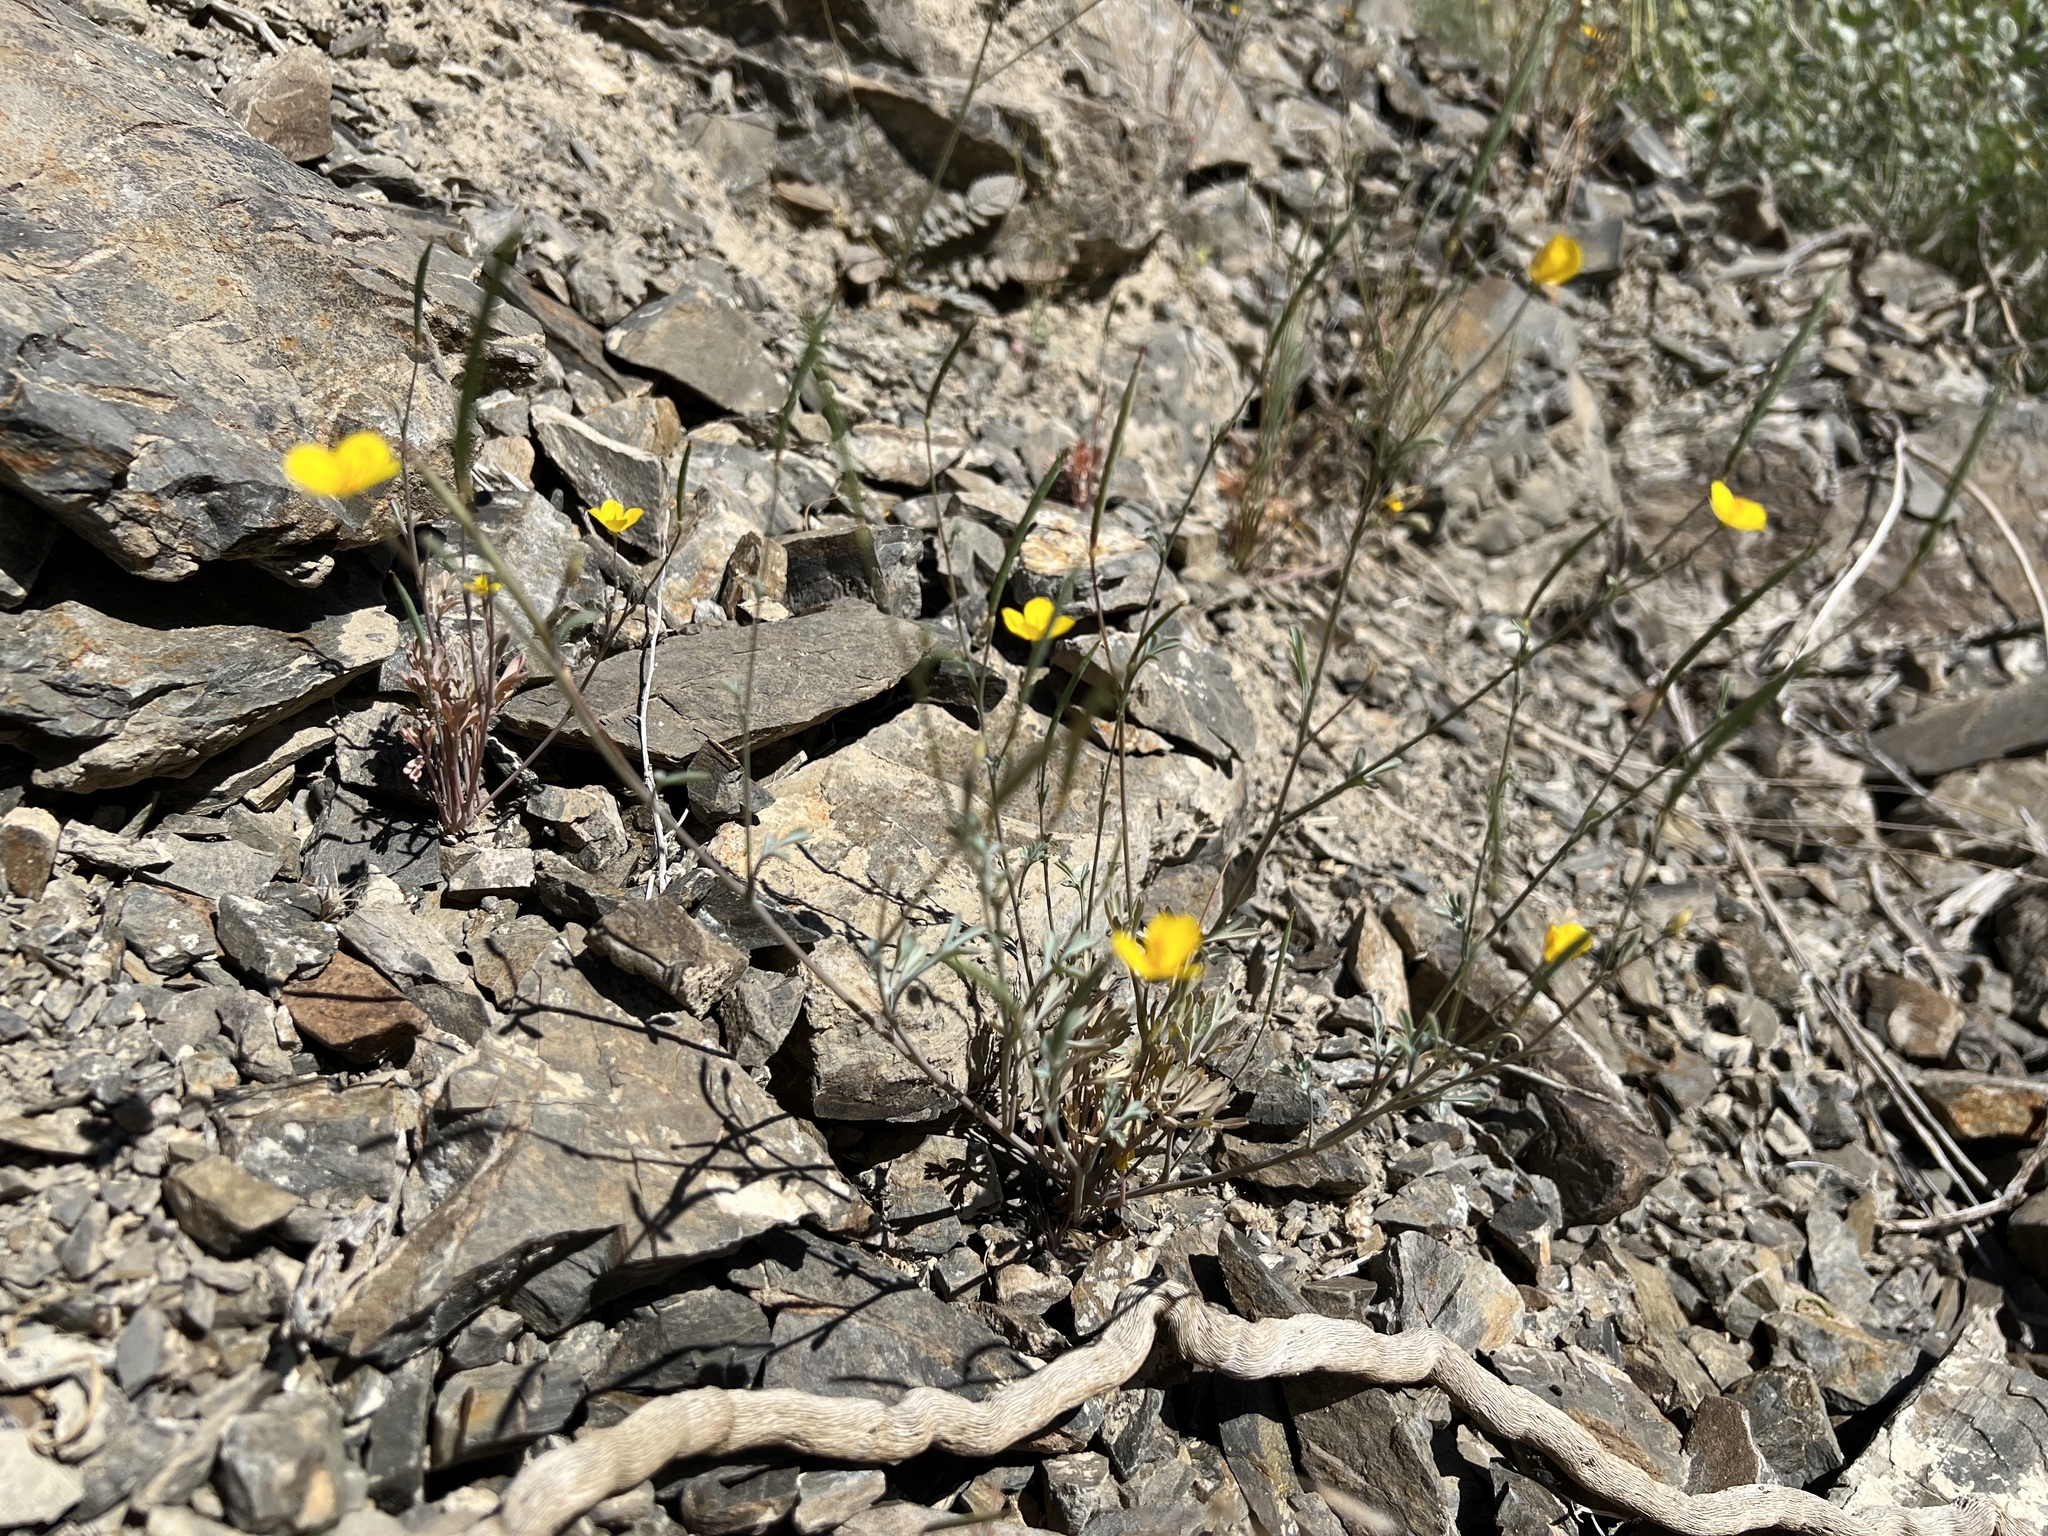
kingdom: Plantae
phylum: Tracheophyta
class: Magnoliopsida
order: Ranunculales
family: Papaveraceae
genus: Eschscholzia
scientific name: Eschscholzia minutiflora
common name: Small-flower california-poppy
